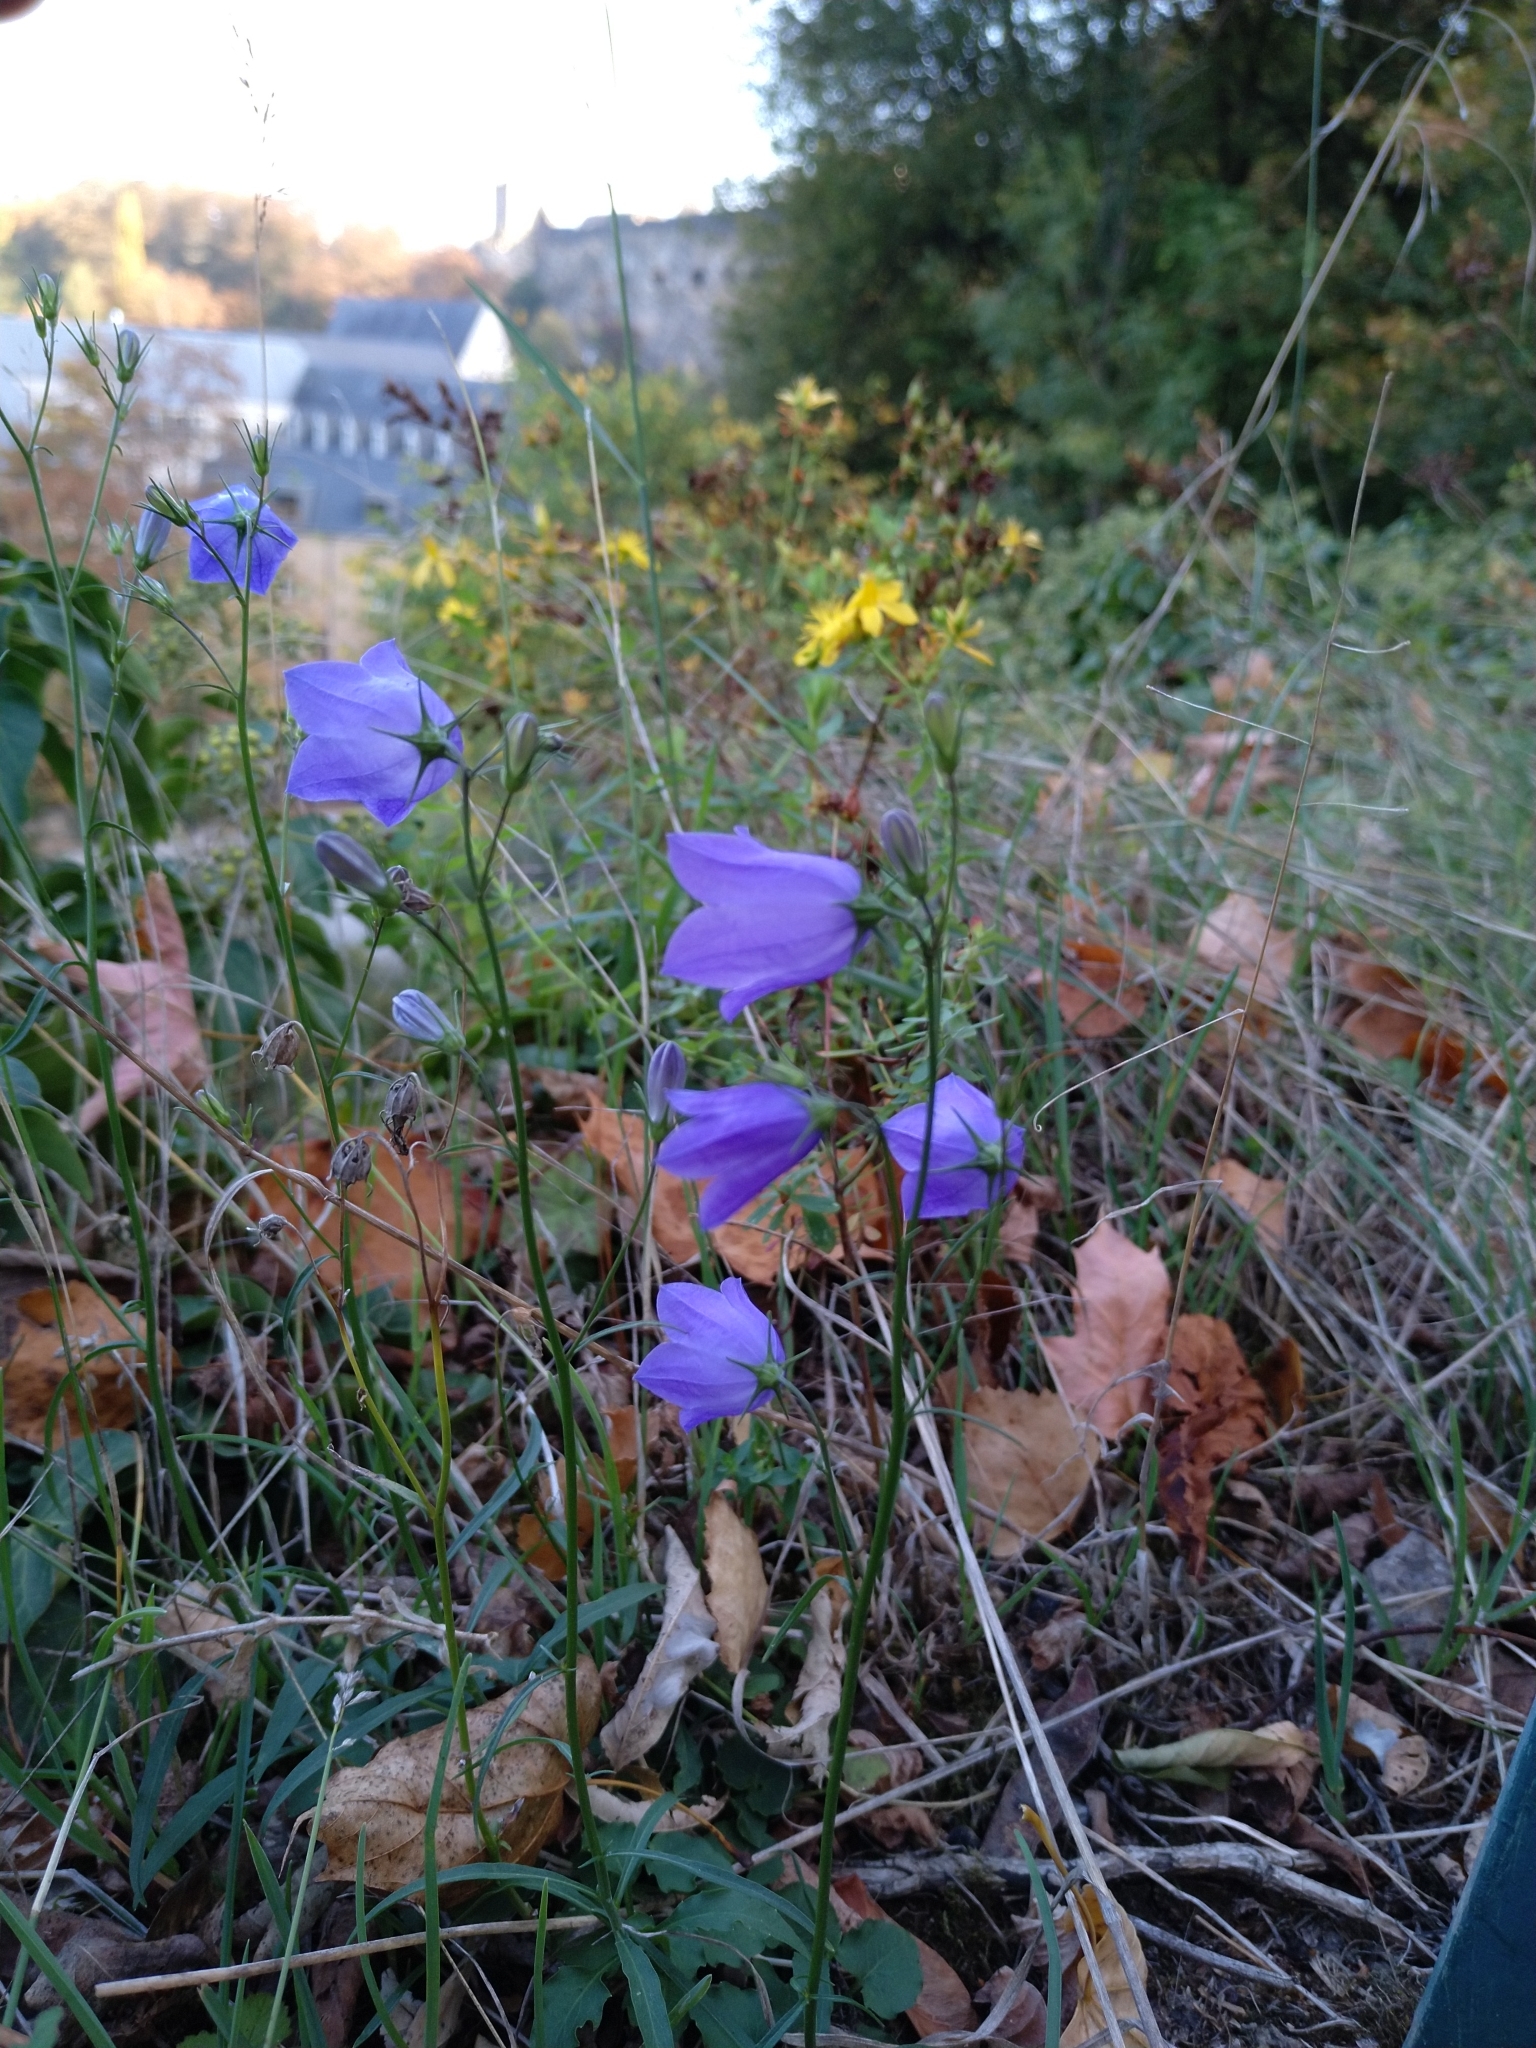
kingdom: Plantae
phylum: Tracheophyta
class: Magnoliopsida
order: Asterales
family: Campanulaceae
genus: Campanula
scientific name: Campanula rotundifolia
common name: Harebell
